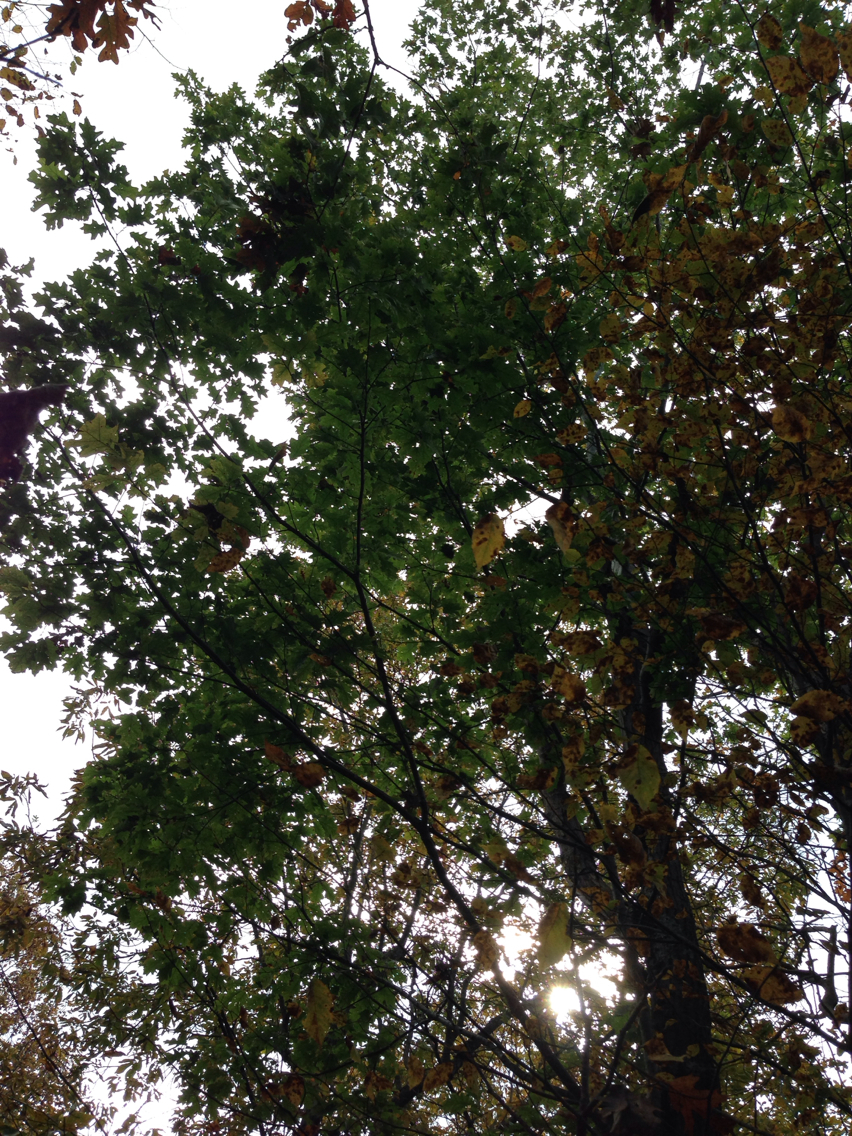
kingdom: Plantae
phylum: Tracheophyta
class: Magnoliopsida
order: Fagales
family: Fagaceae
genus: Quercus
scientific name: Quercus rubra
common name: Red oak
